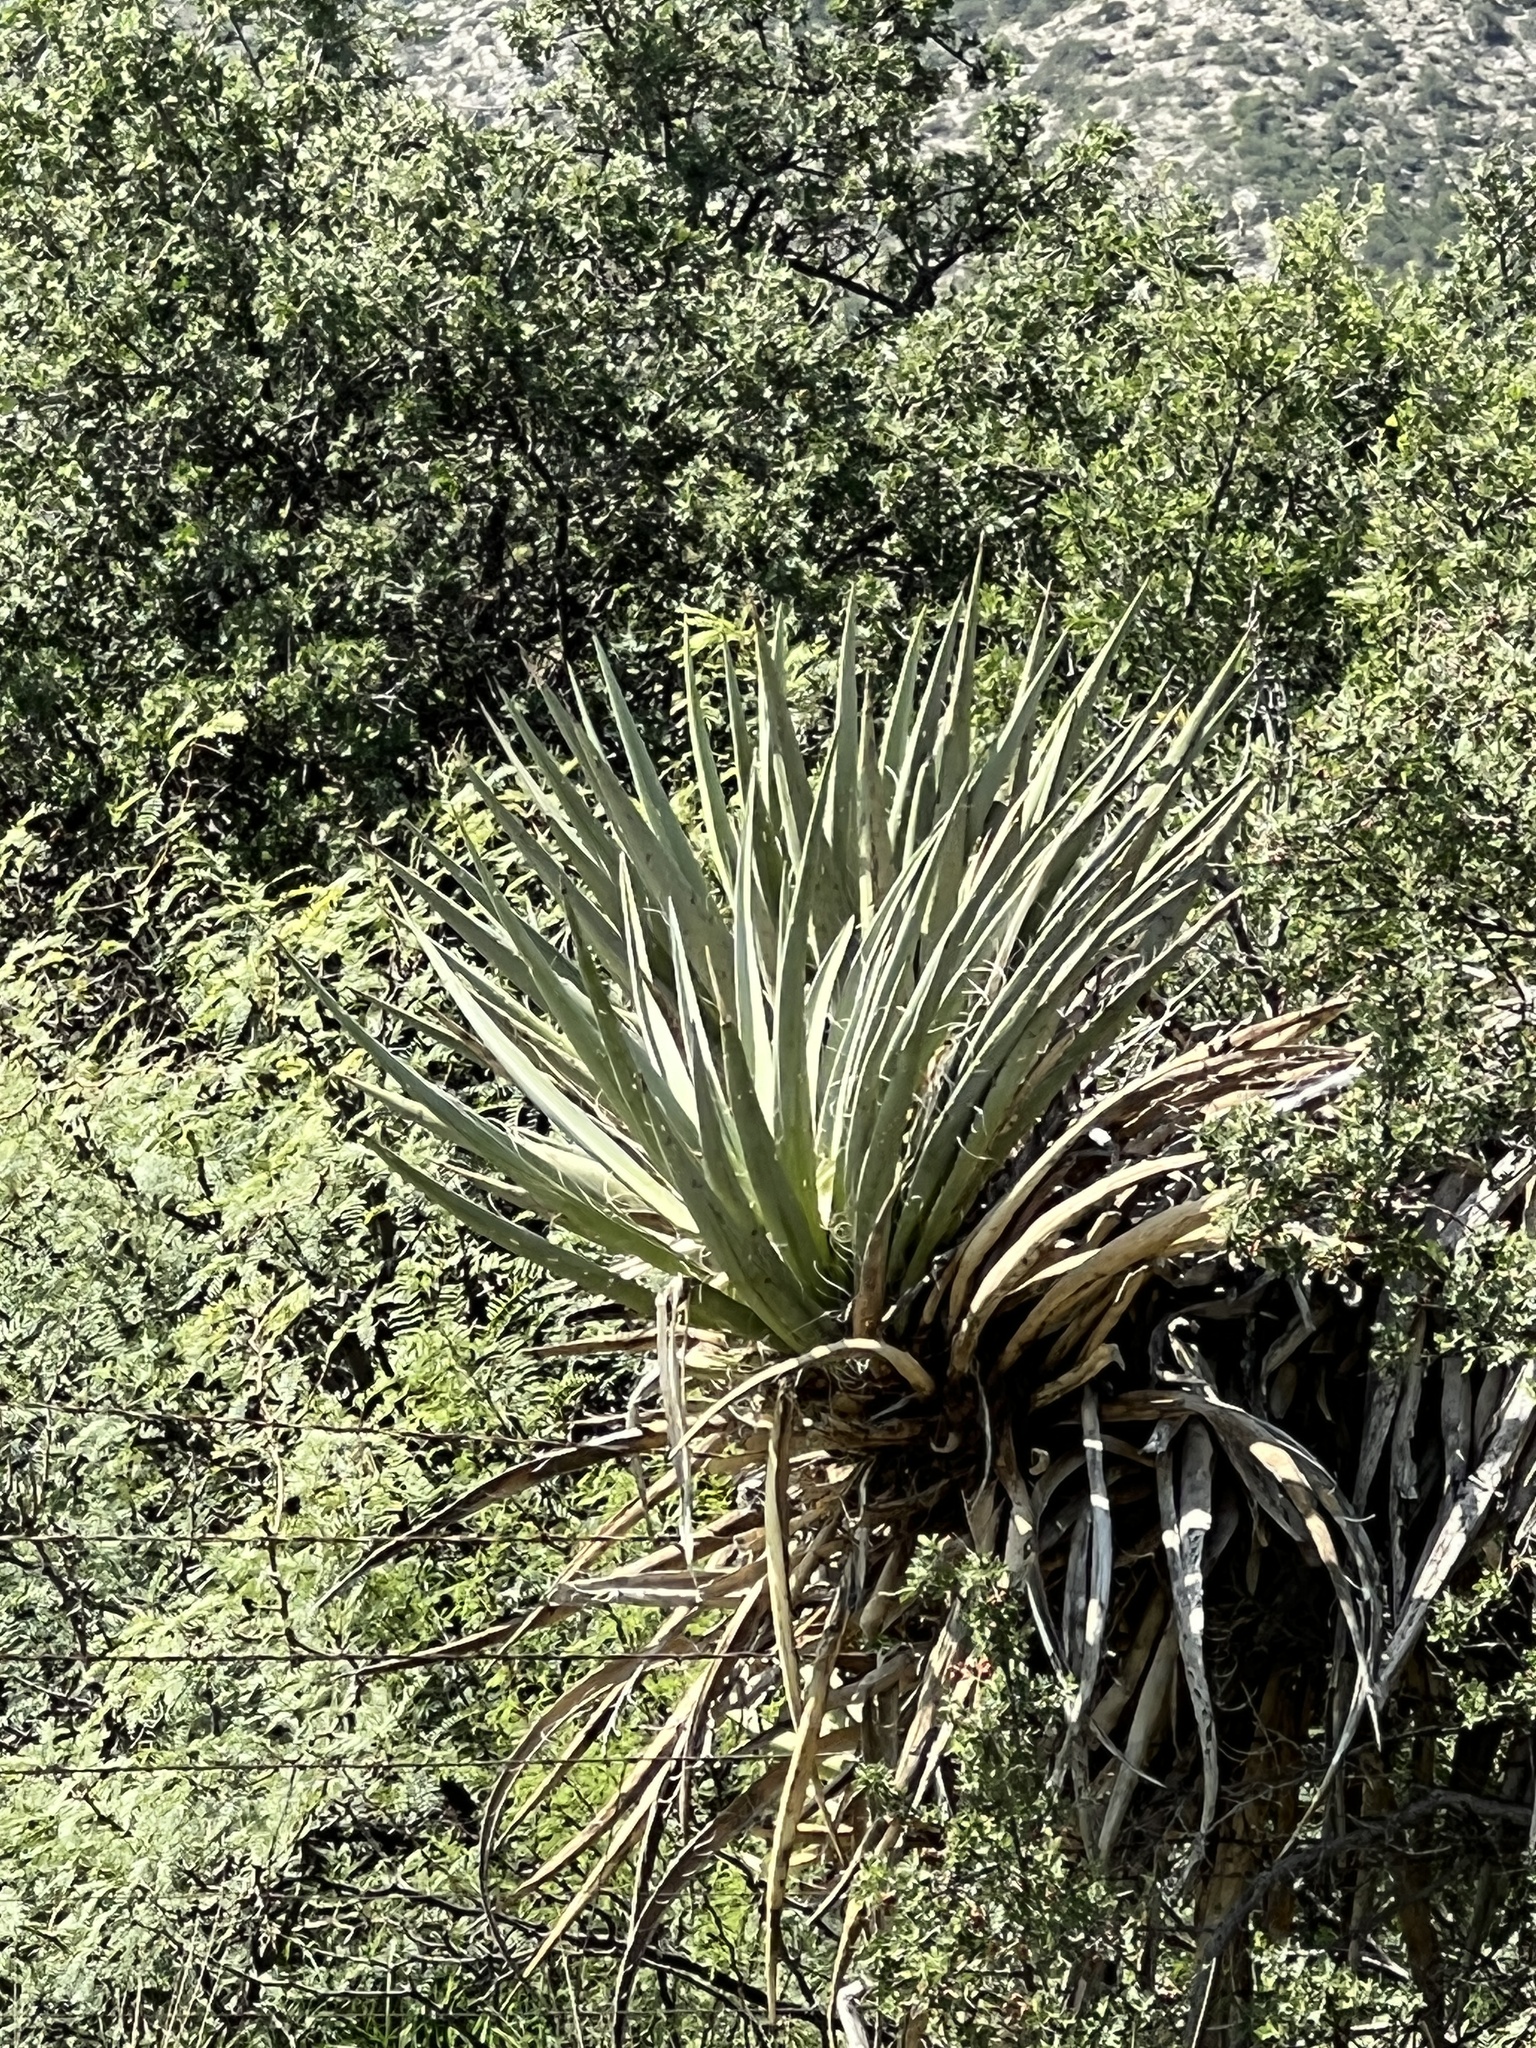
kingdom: Plantae
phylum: Tracheophyta
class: Liliopsida
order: Asparagales
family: Asparagaceae
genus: Yucca
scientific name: Yucca treculiana
